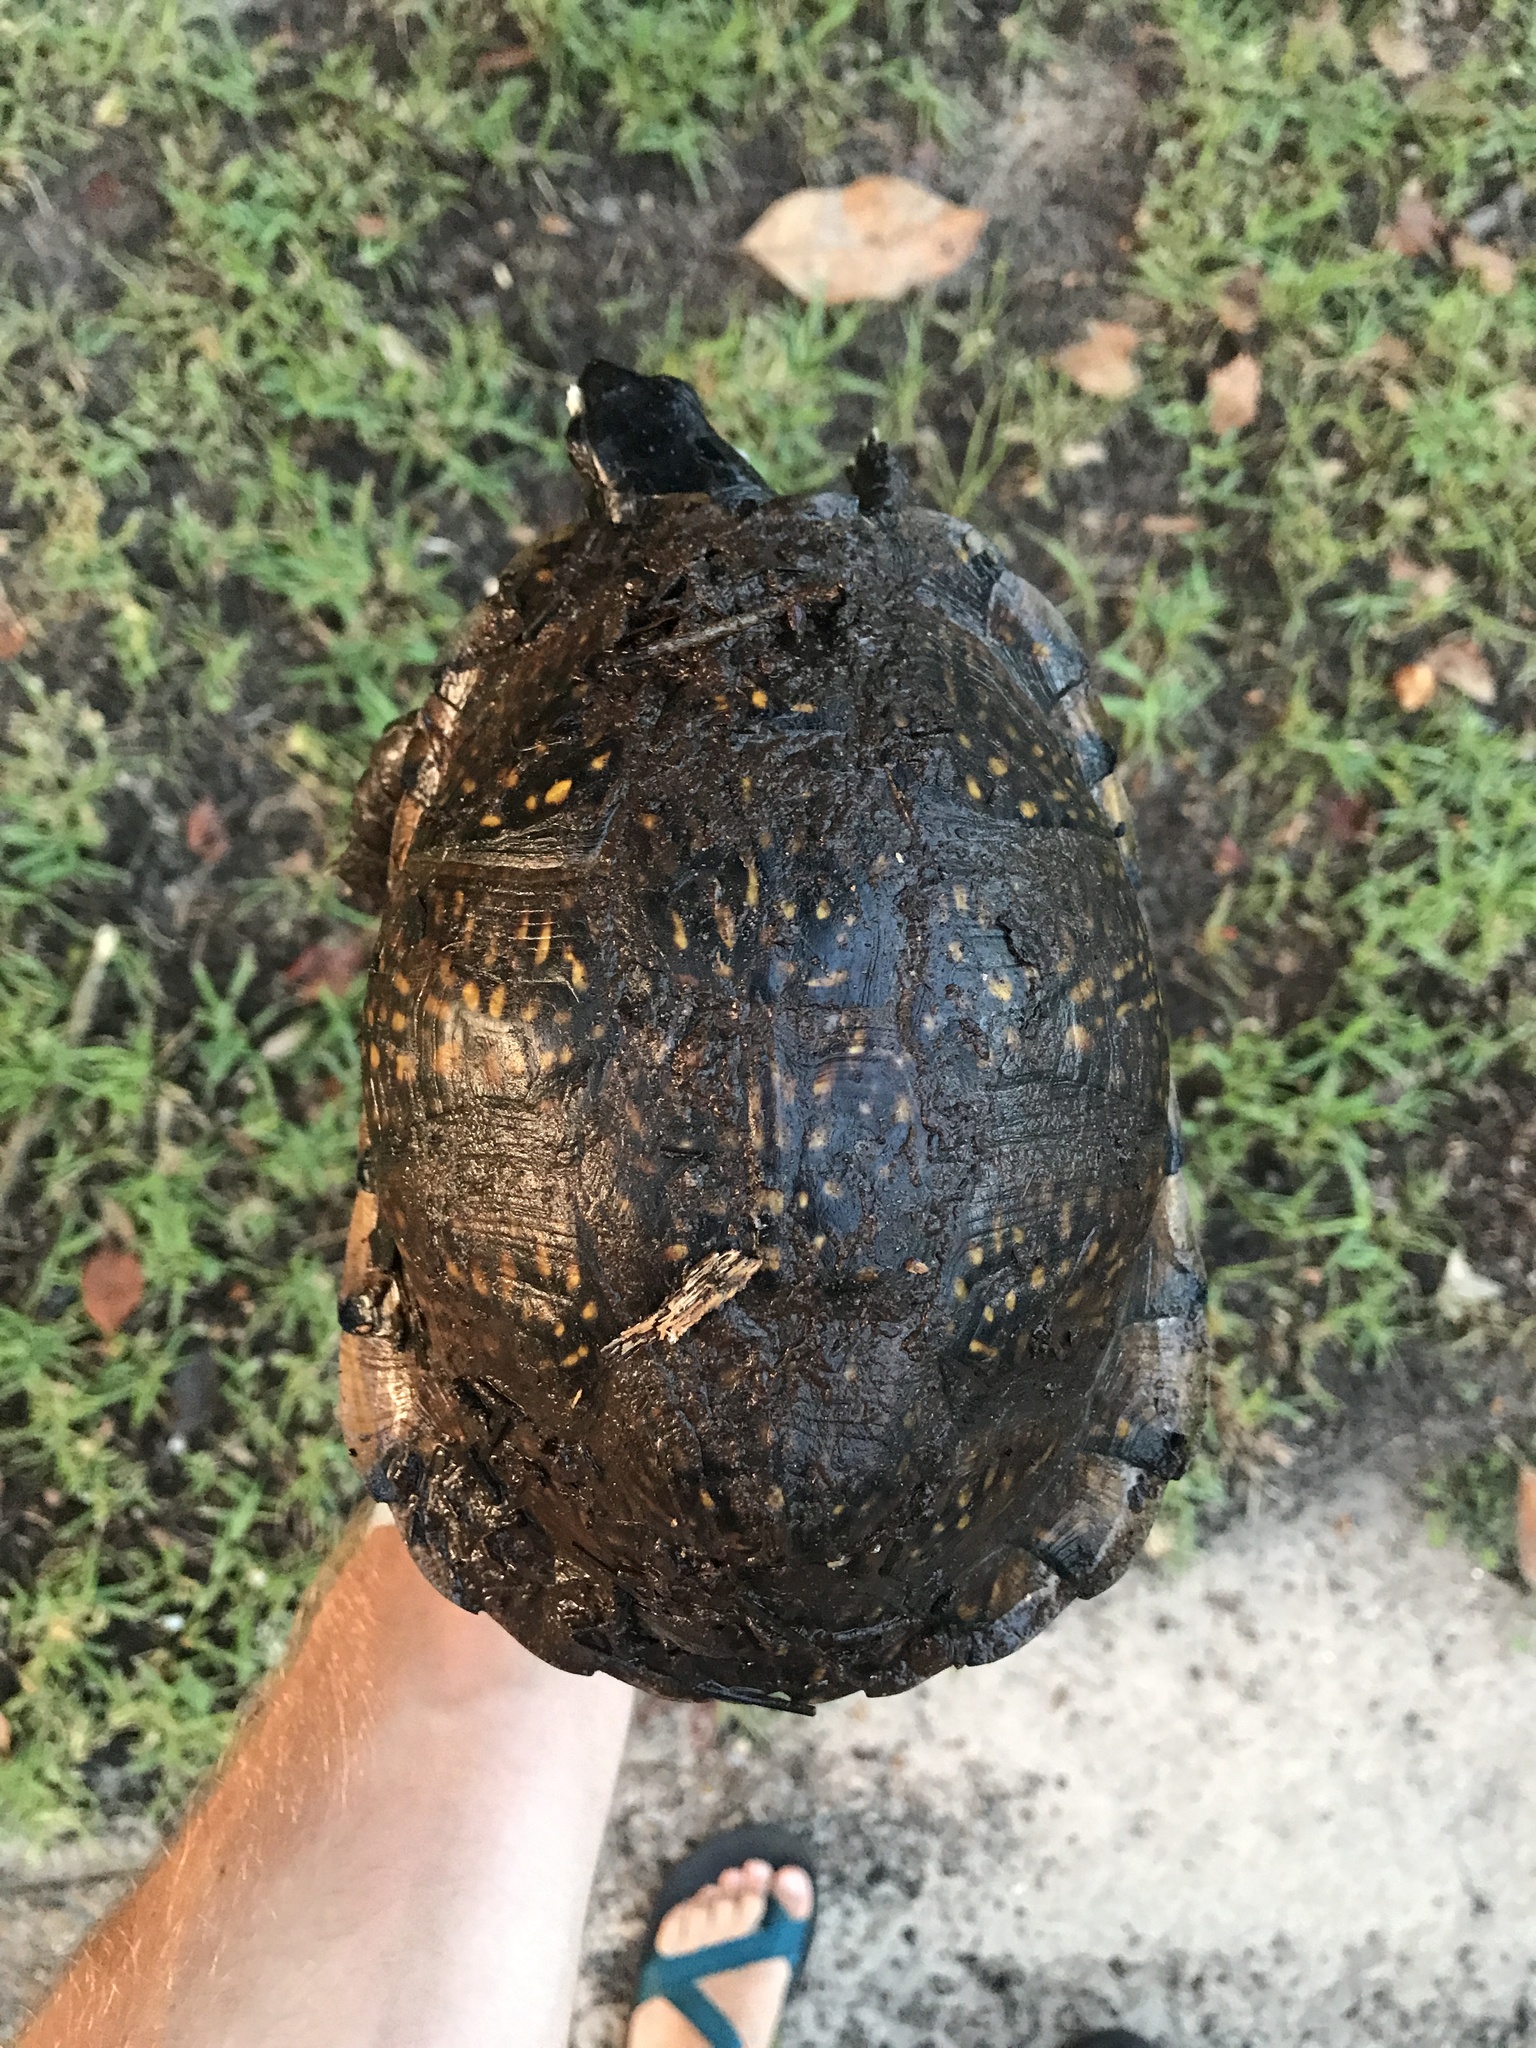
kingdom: Animalia
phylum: Chordata
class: Testudines
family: Emydidae
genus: Terrapene
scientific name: Terrapene carolina
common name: Common box turtle
